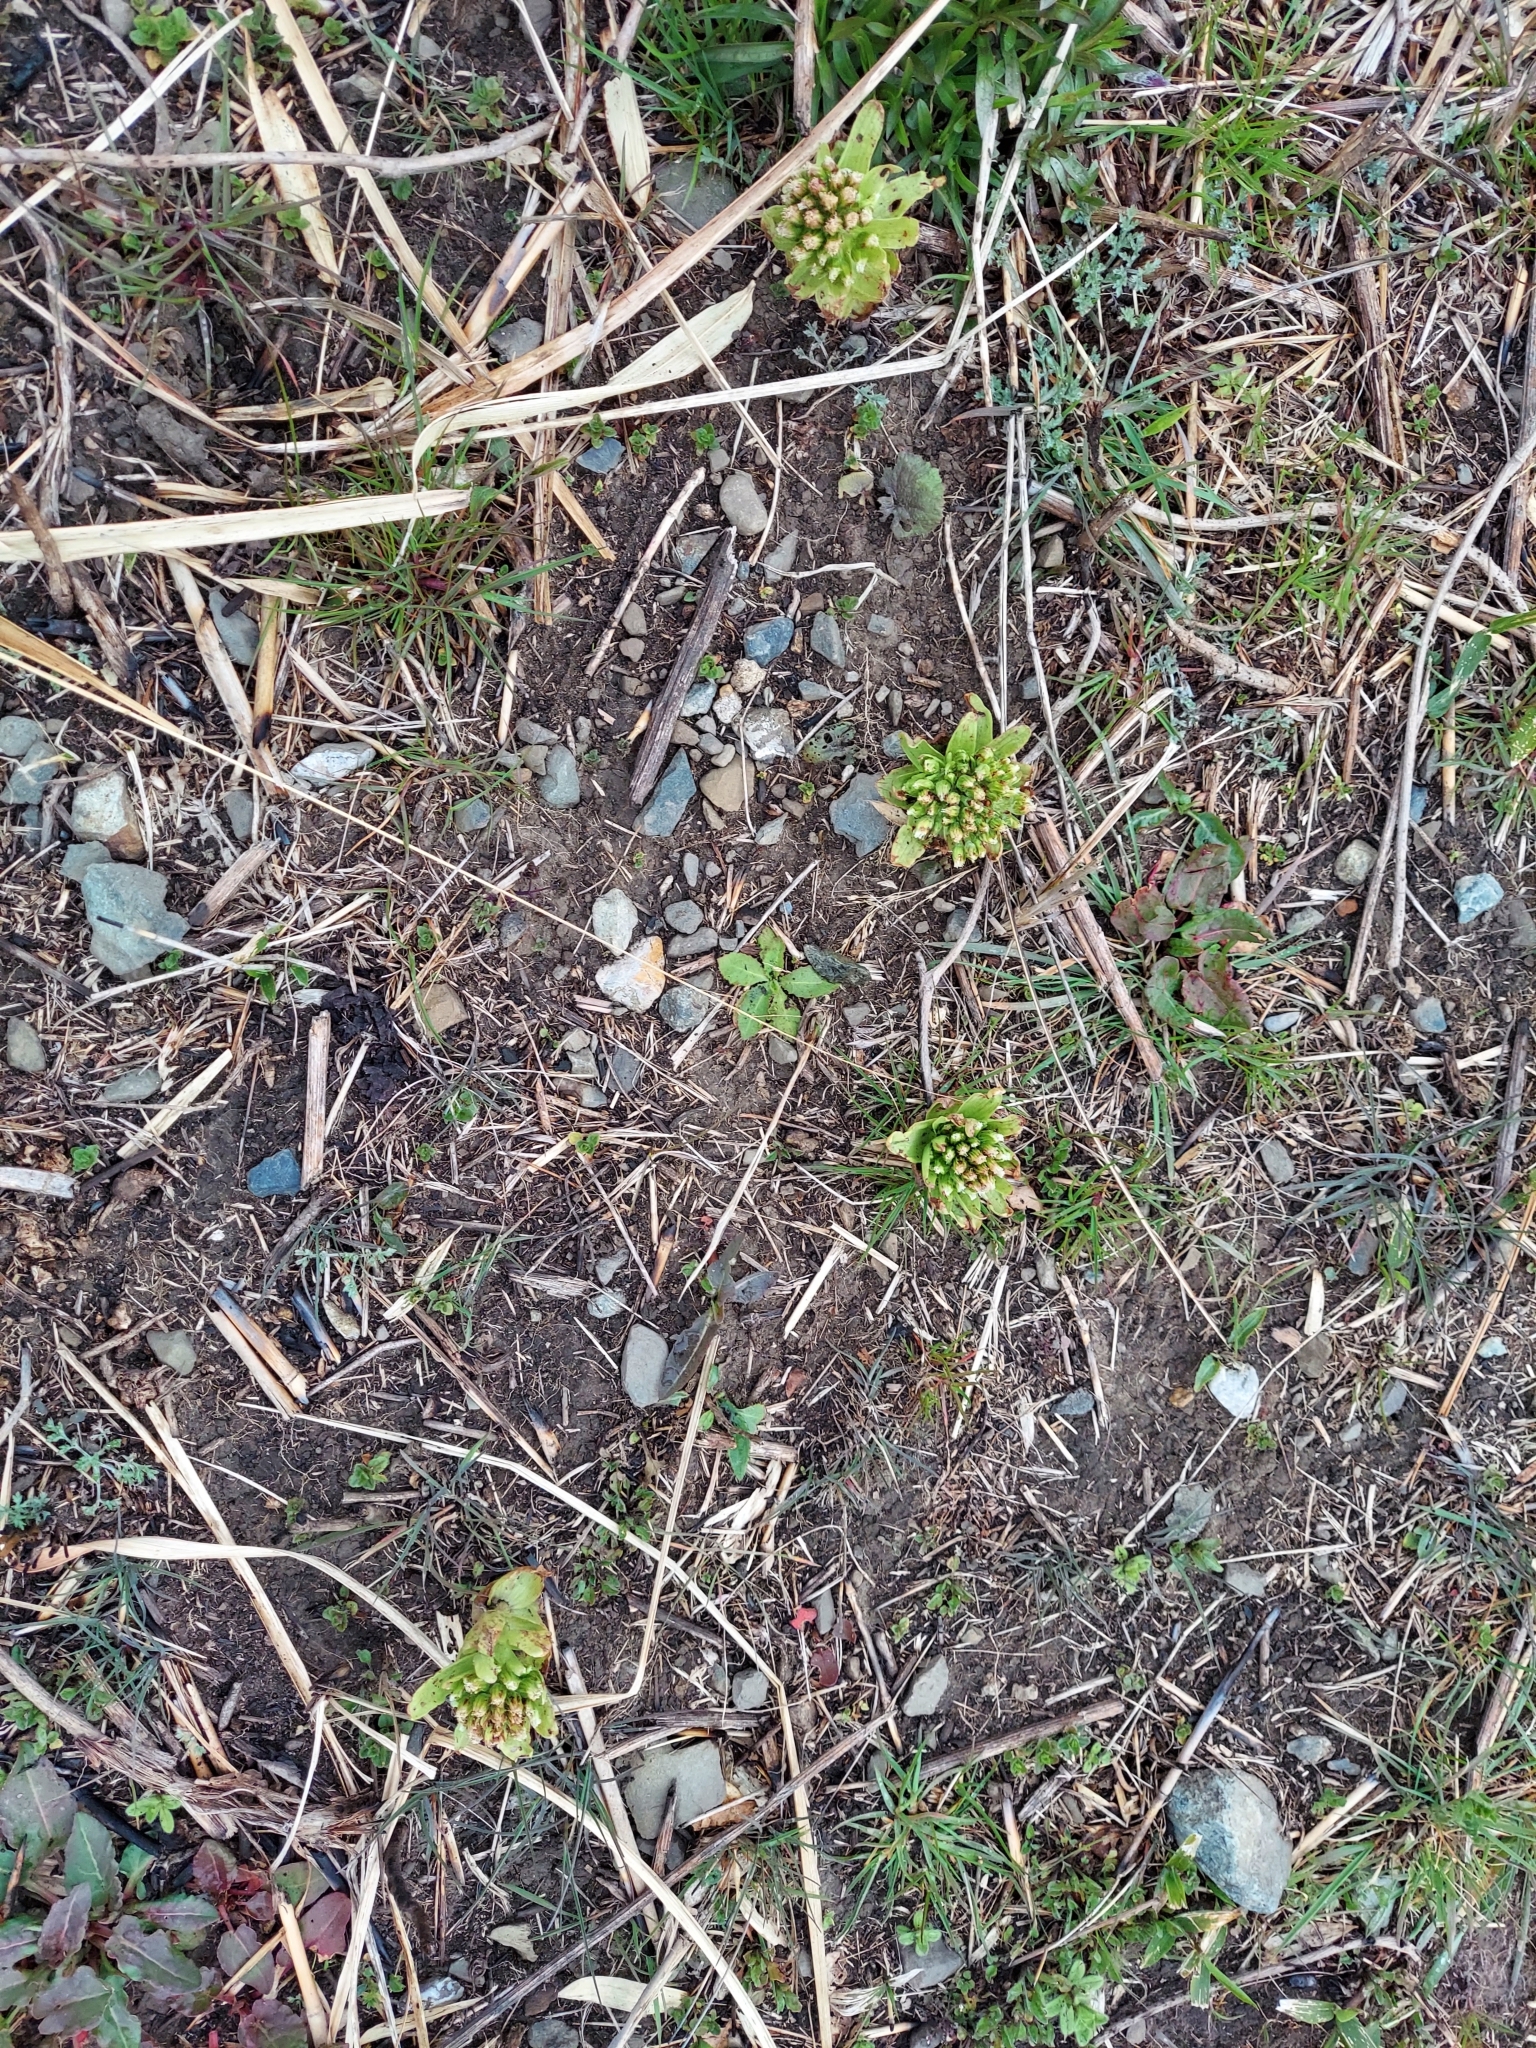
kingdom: Plantae
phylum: Tracheophyta
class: Magnoliopsida
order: Asterales
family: Asteraceae
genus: Petasites
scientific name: Petasites japonicus
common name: Giant butterbur
